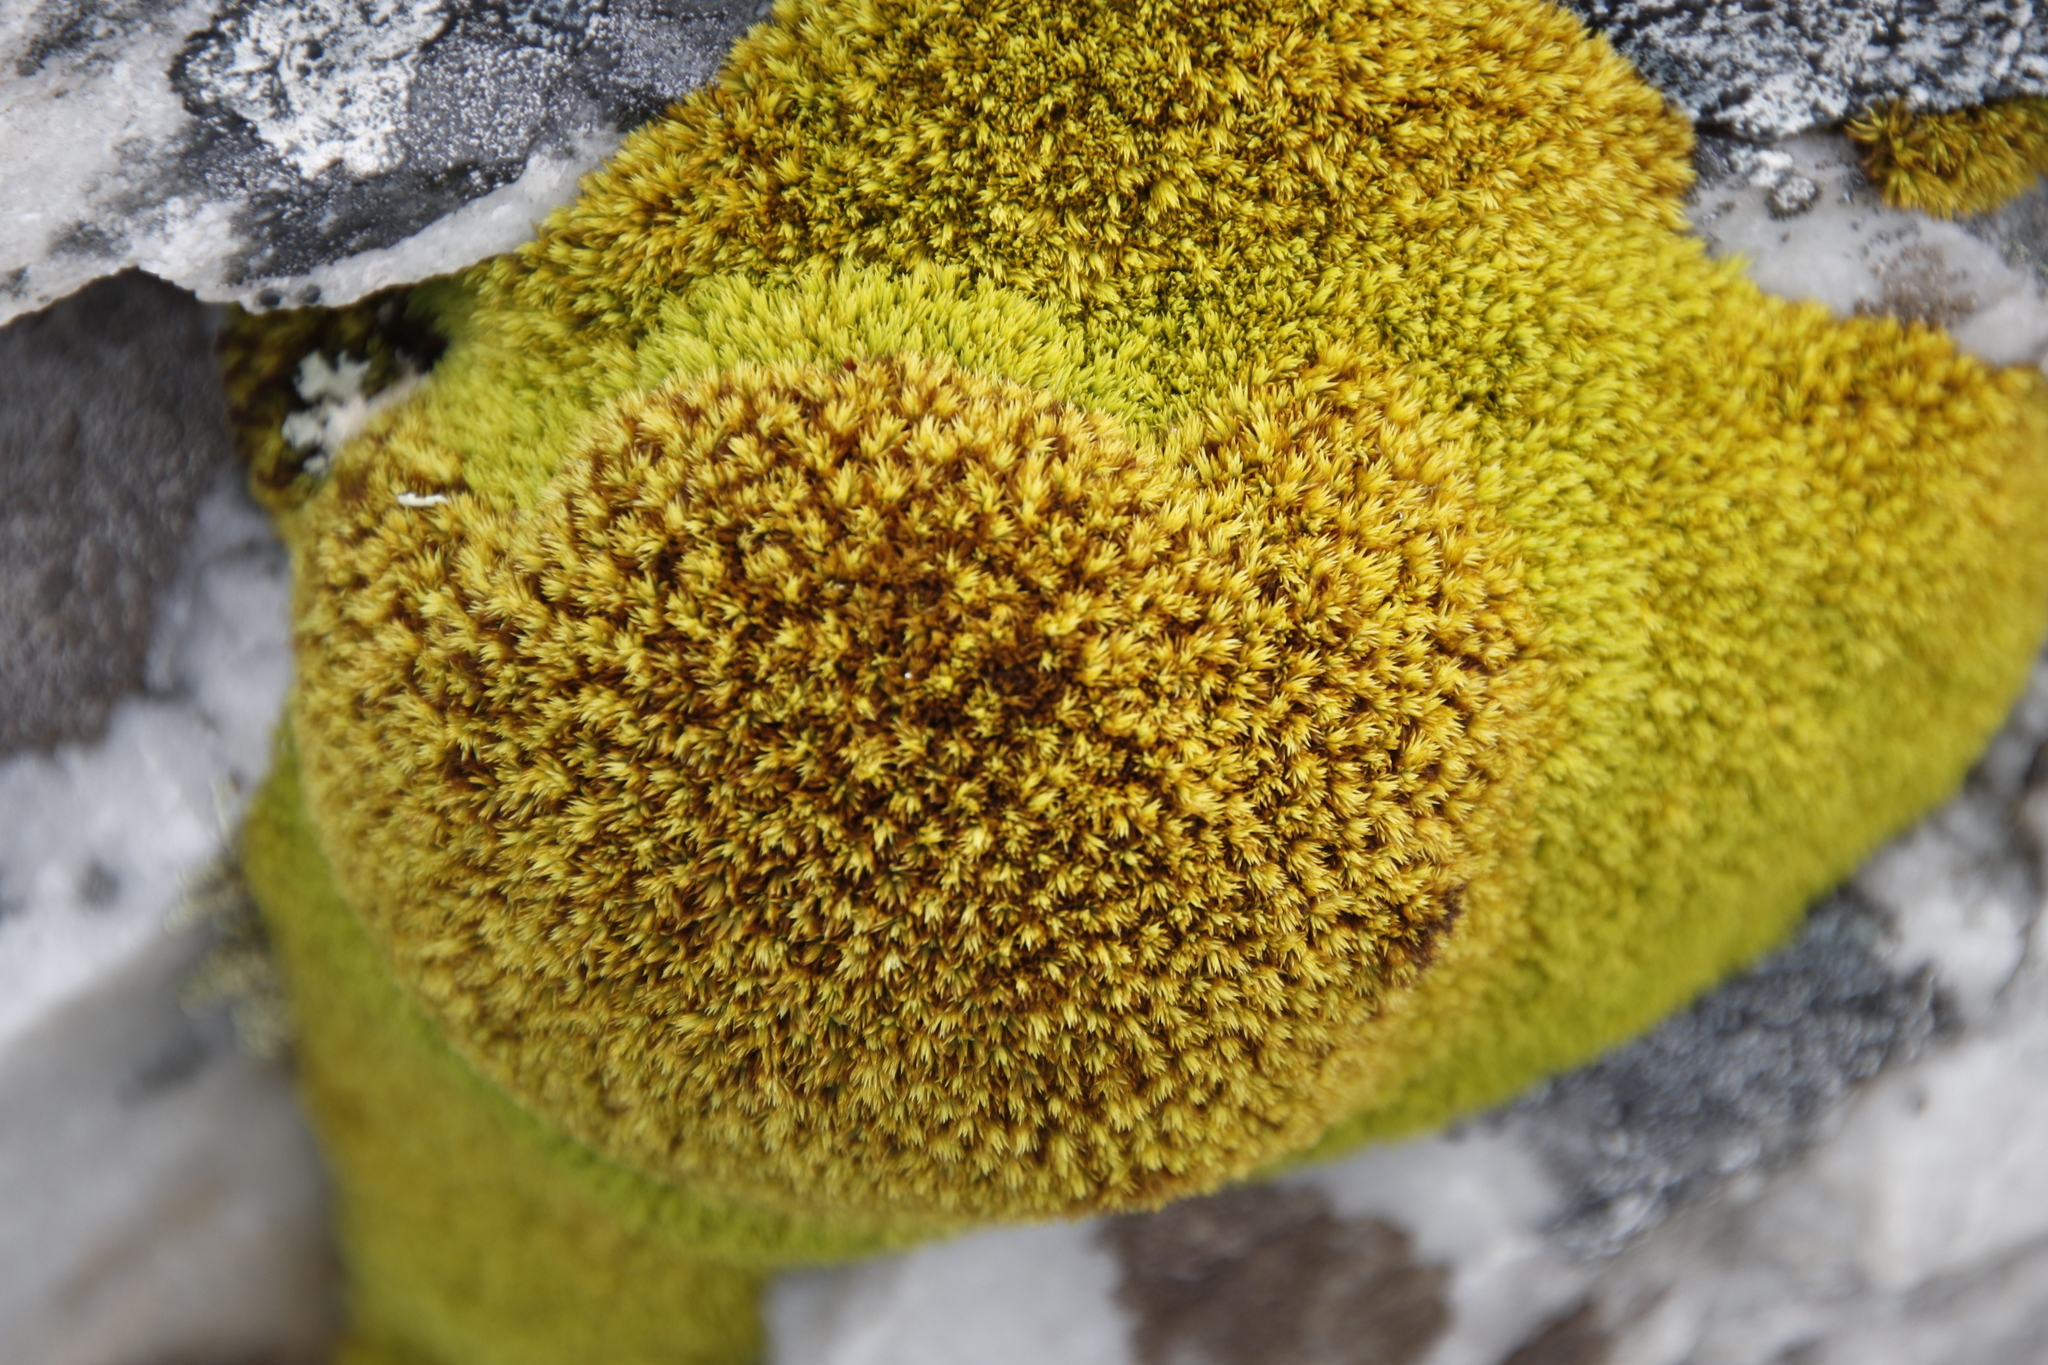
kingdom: Plantae
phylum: Bryophyta
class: Bryopsida
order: Pottiales
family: Pottiaceae
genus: Trichostomum
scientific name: Trichostomum brachydontium
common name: Variable crisp-moss
